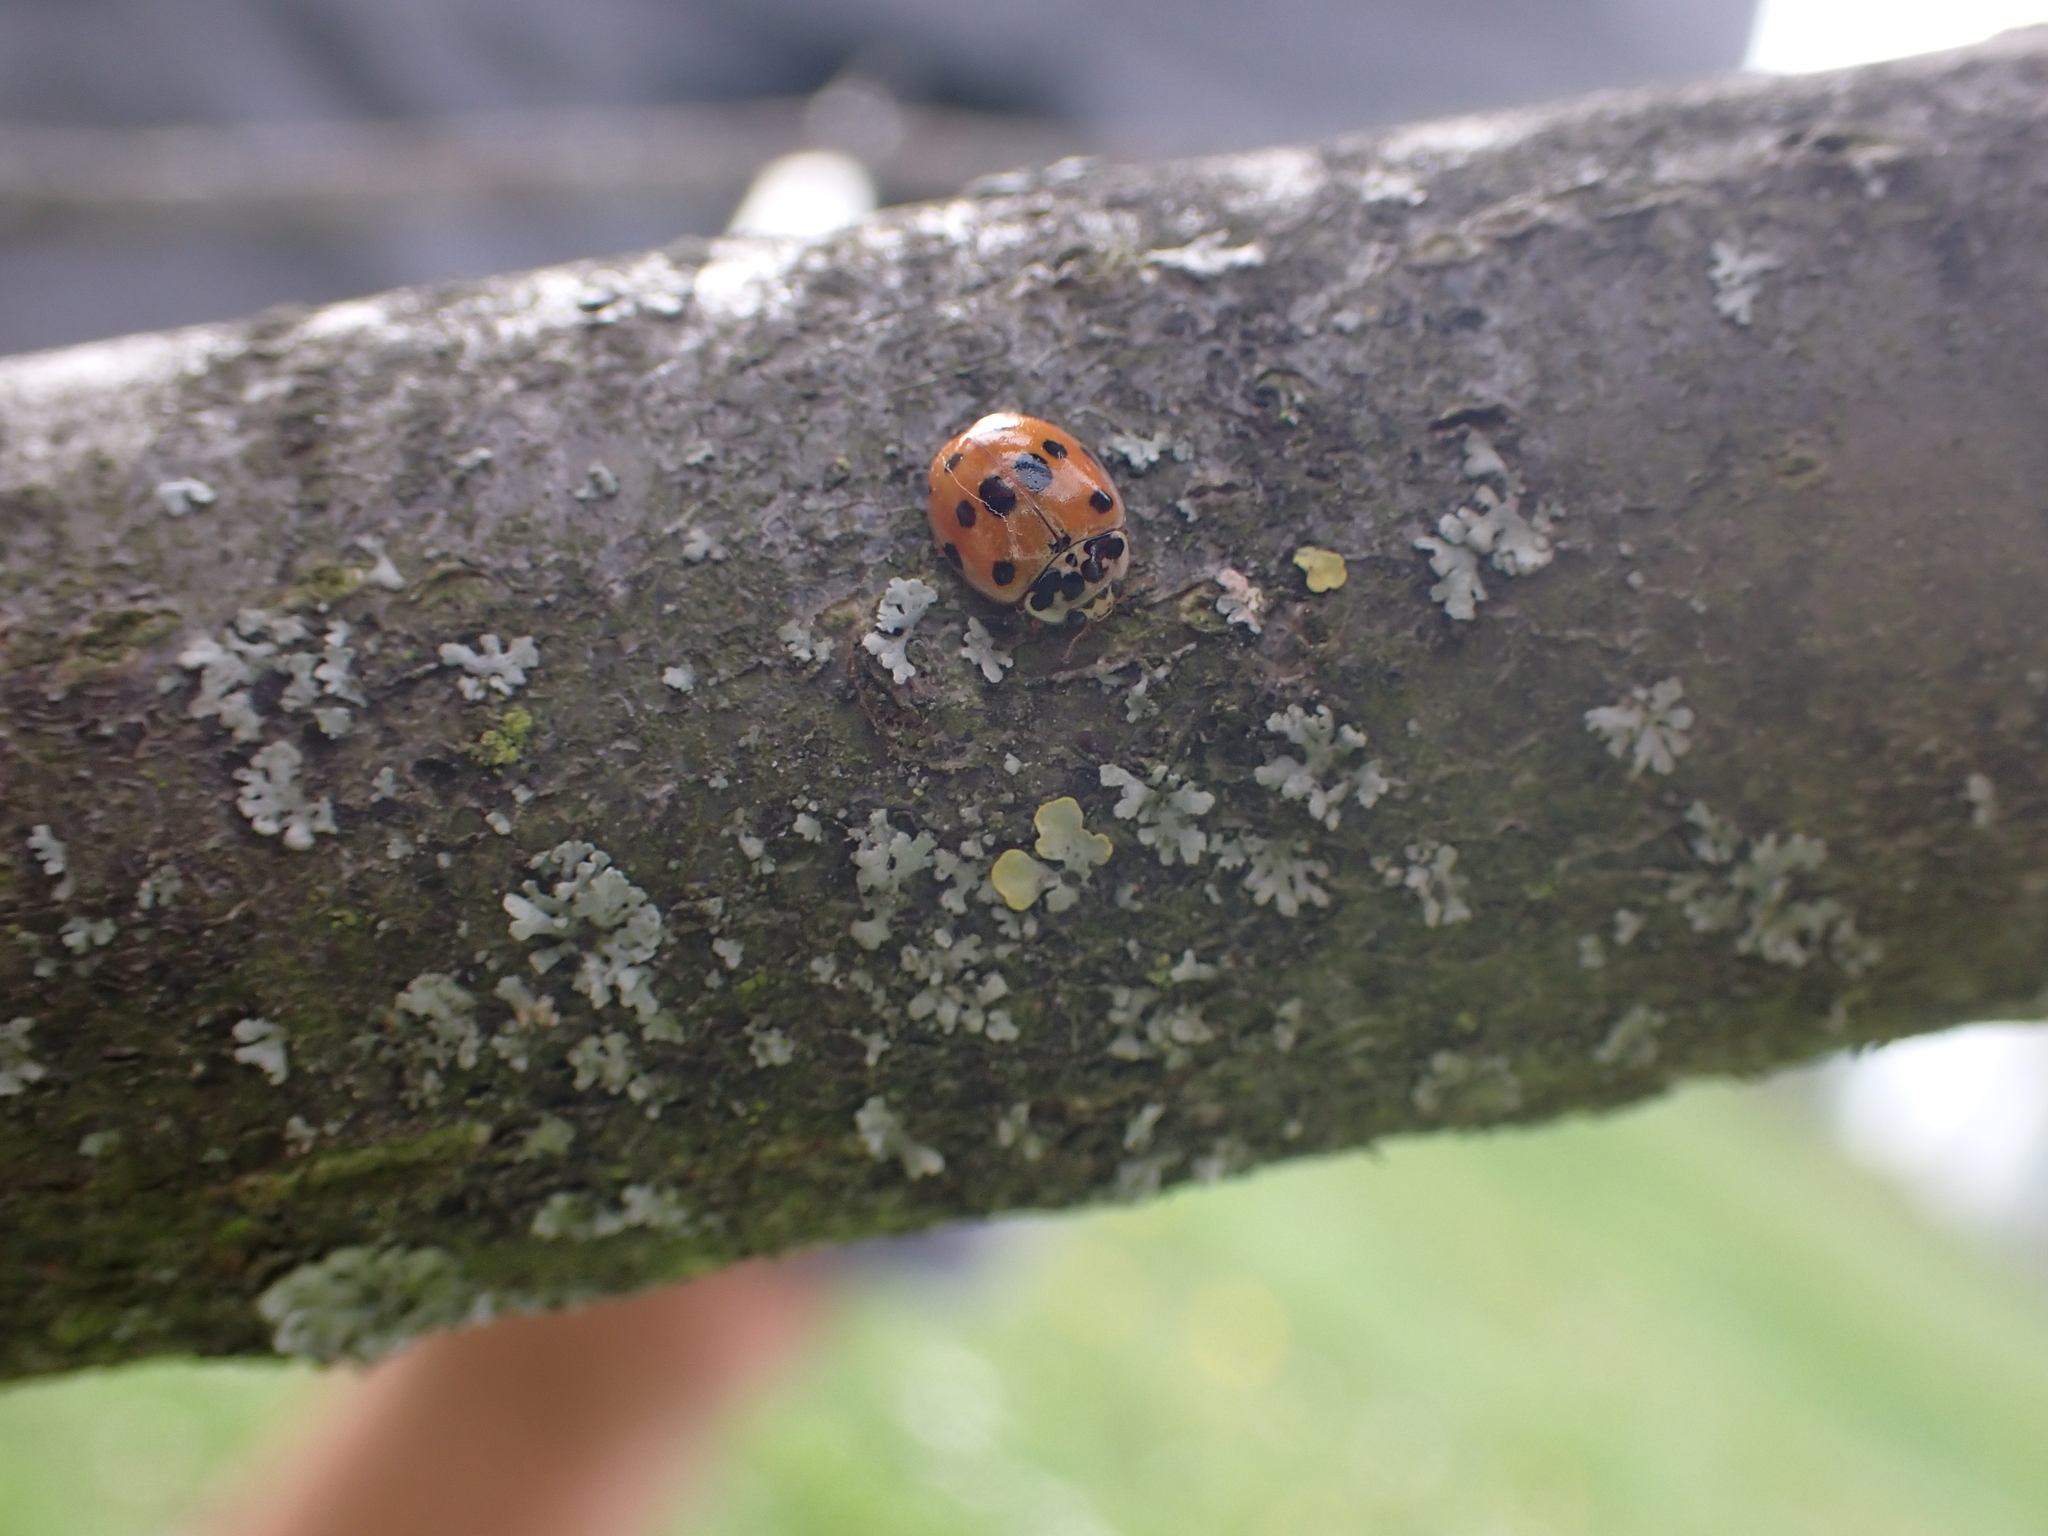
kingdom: Animalia
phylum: Arthropoda
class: Insecta
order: Coleoptera
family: Coccinellidae
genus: Adalia
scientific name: Adalia decempunctata
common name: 10-spot ladybird
